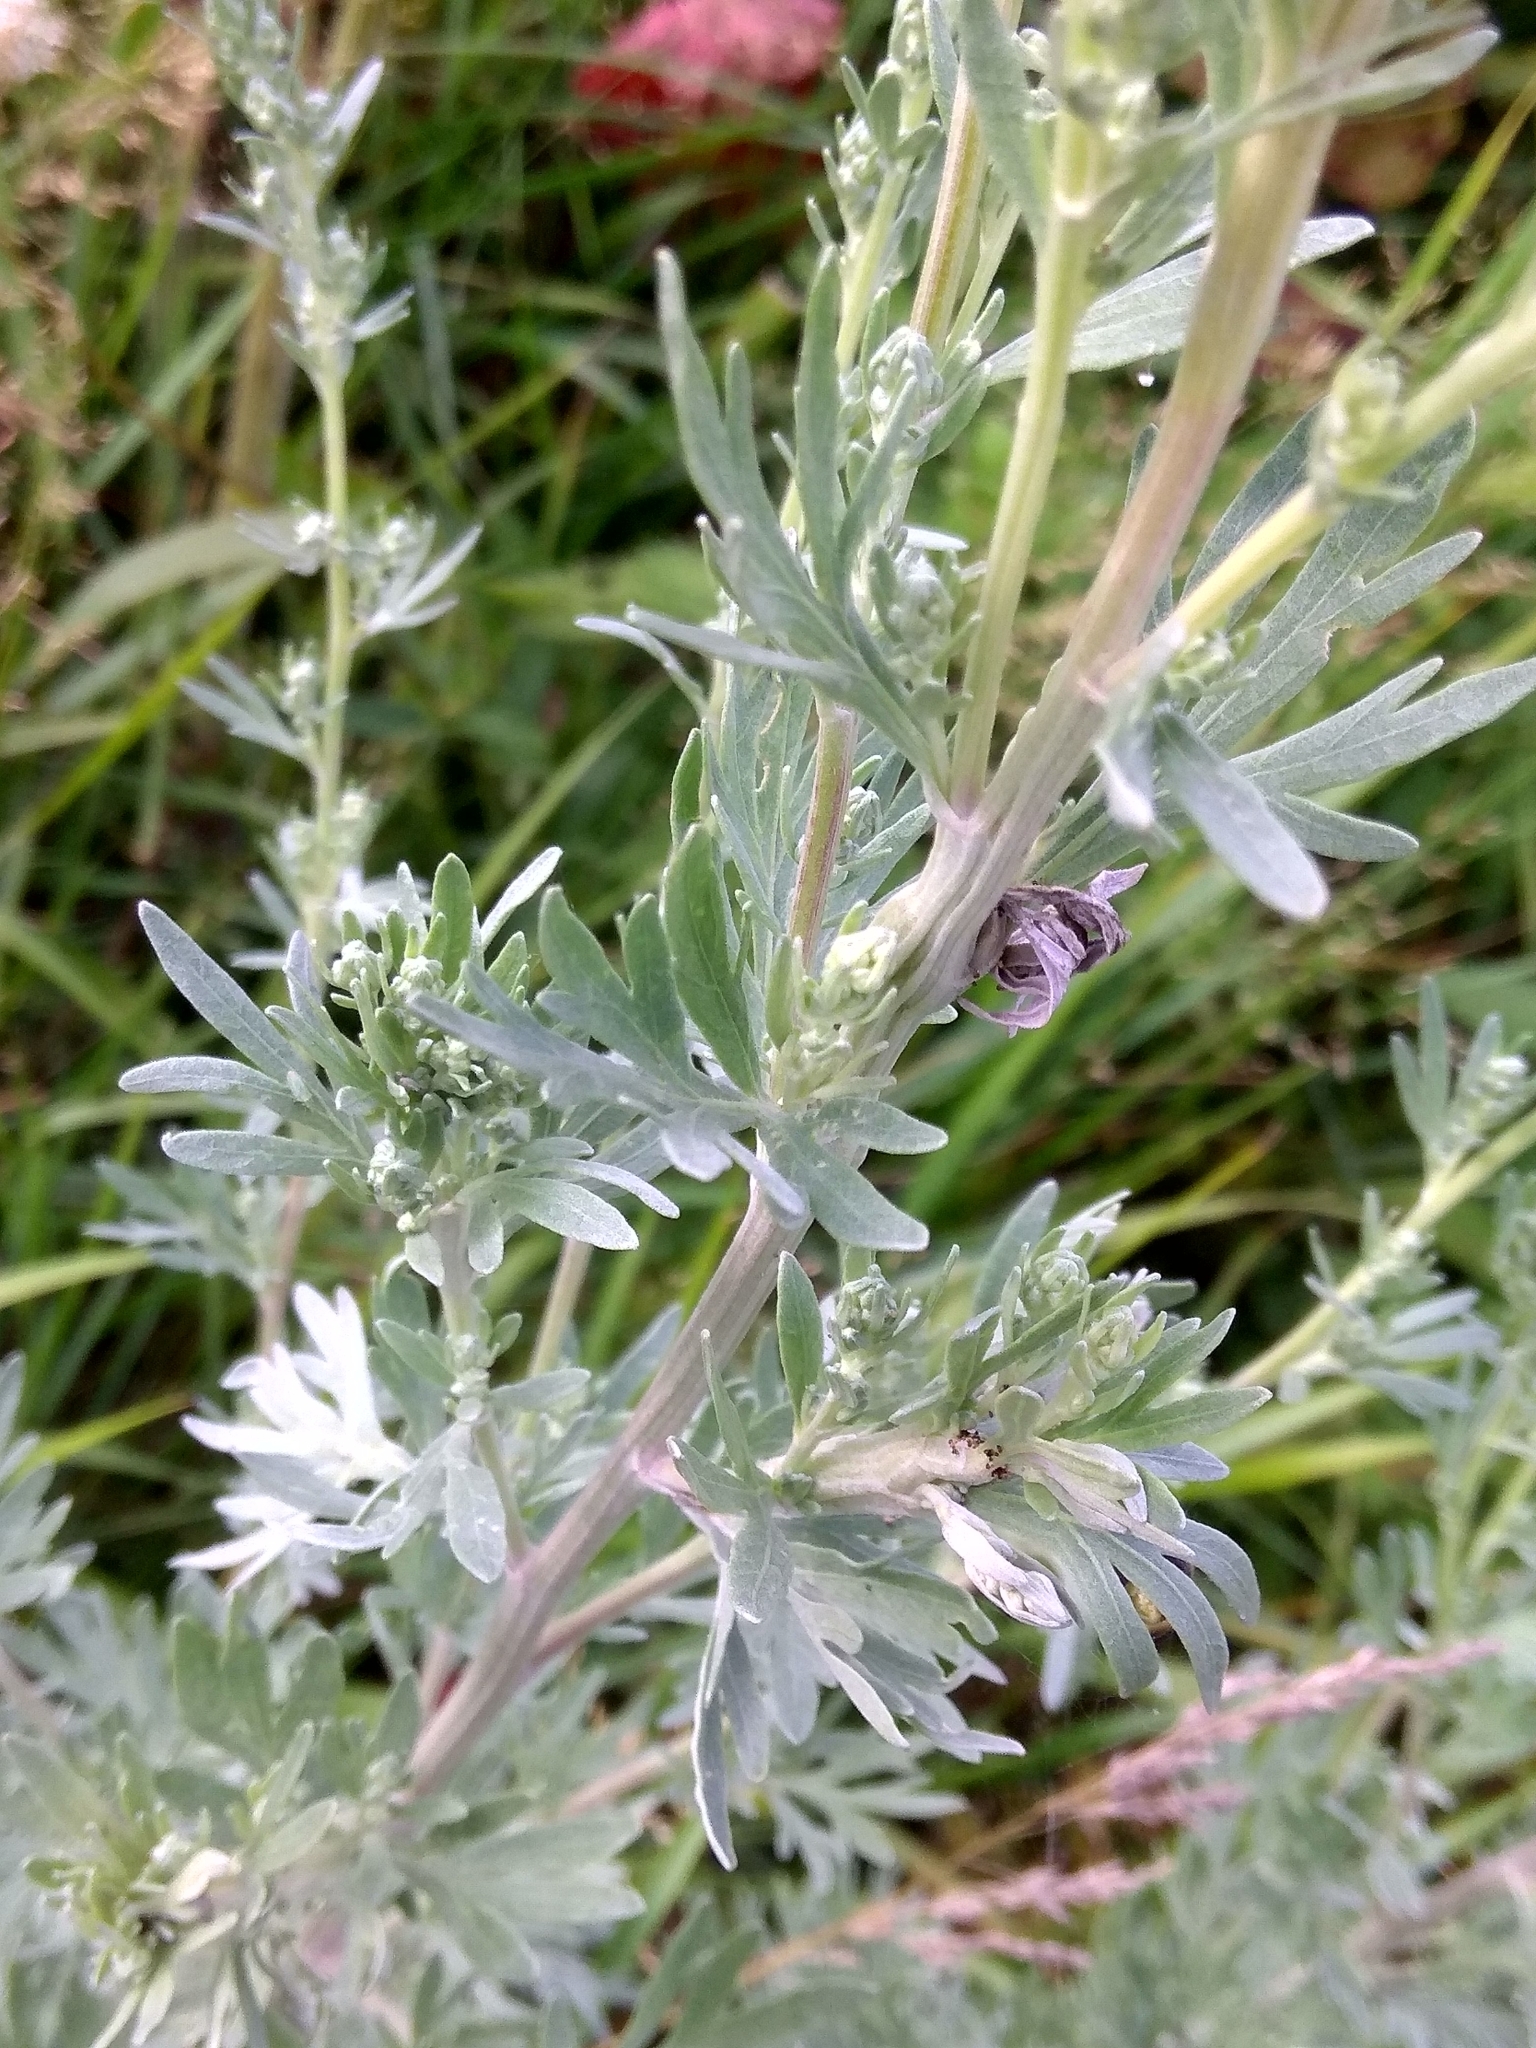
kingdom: Plantae
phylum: Tracheophyta
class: Magnoliopsida
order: Asterales
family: Asteraceae
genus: Artemisia
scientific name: Artemisia absinthium
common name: Wormwood
